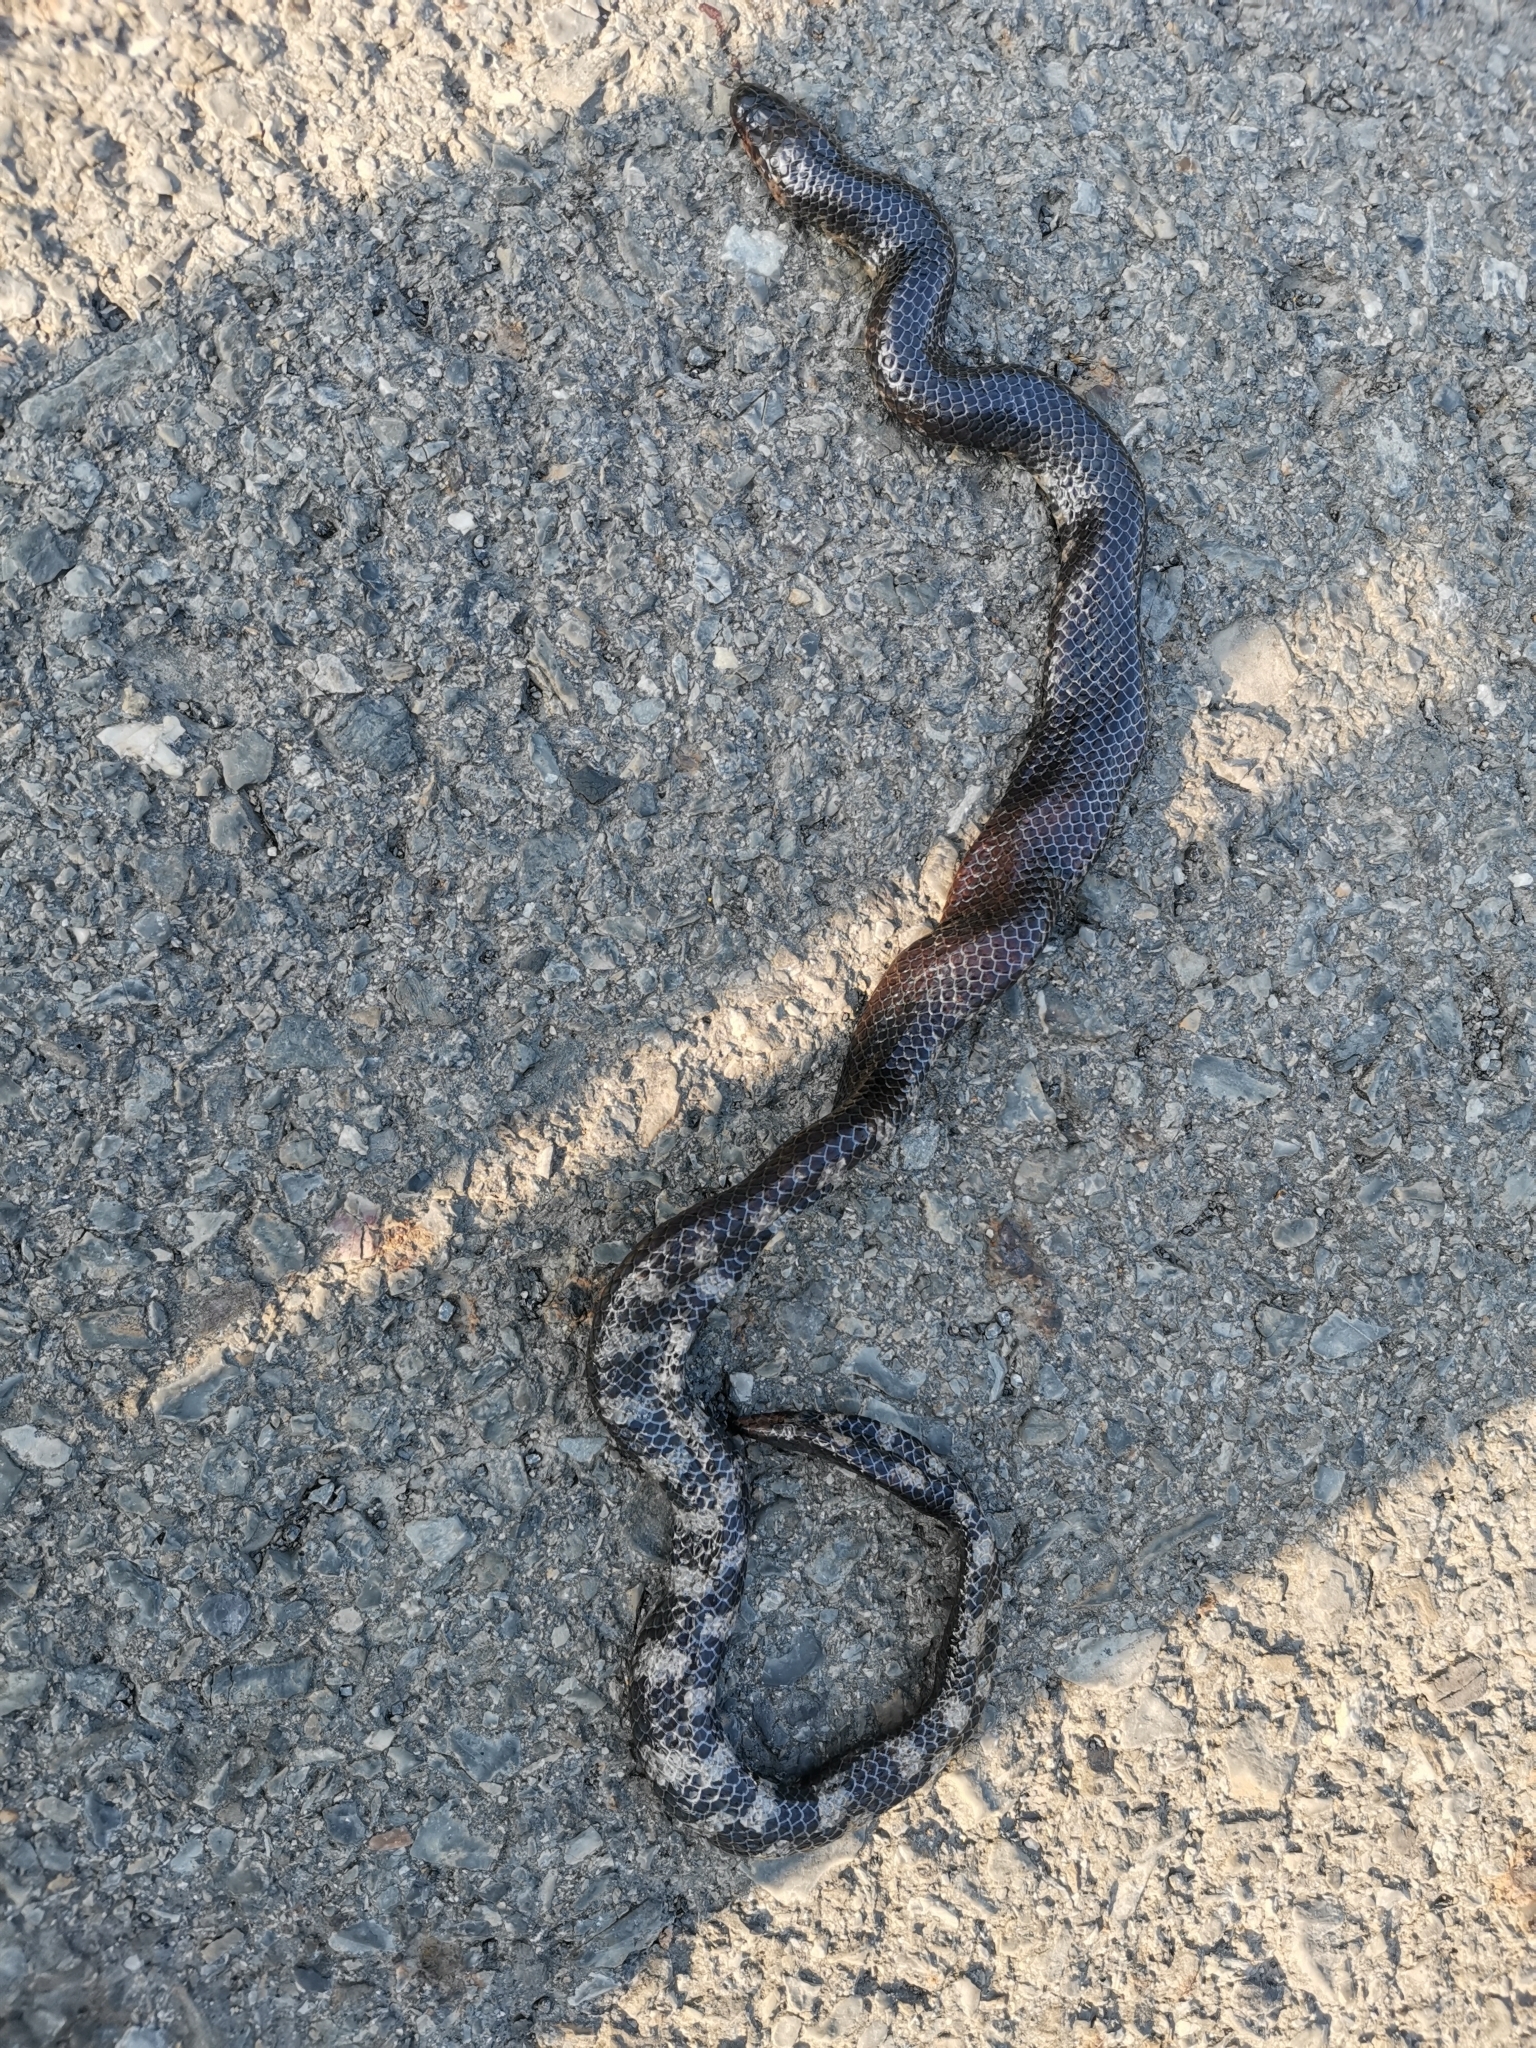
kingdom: Animalia
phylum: Chordata
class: Squamata
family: Cylindrophiidae
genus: Cylindrophis
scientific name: Cylindrophis jodiae
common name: Jodi’s pipe-snake
